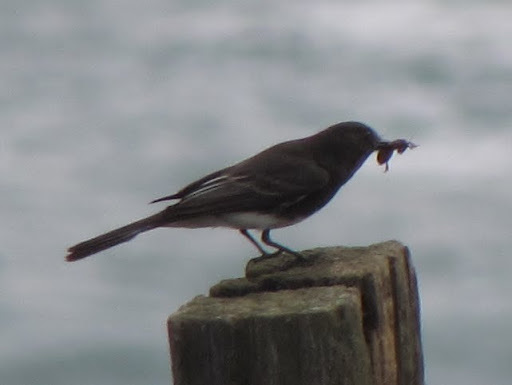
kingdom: Animalia
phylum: Chordata
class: Aves
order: Passeriformes
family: Tyrannidae
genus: Sayornis
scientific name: Sayornis nigricans
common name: Black phoebe
